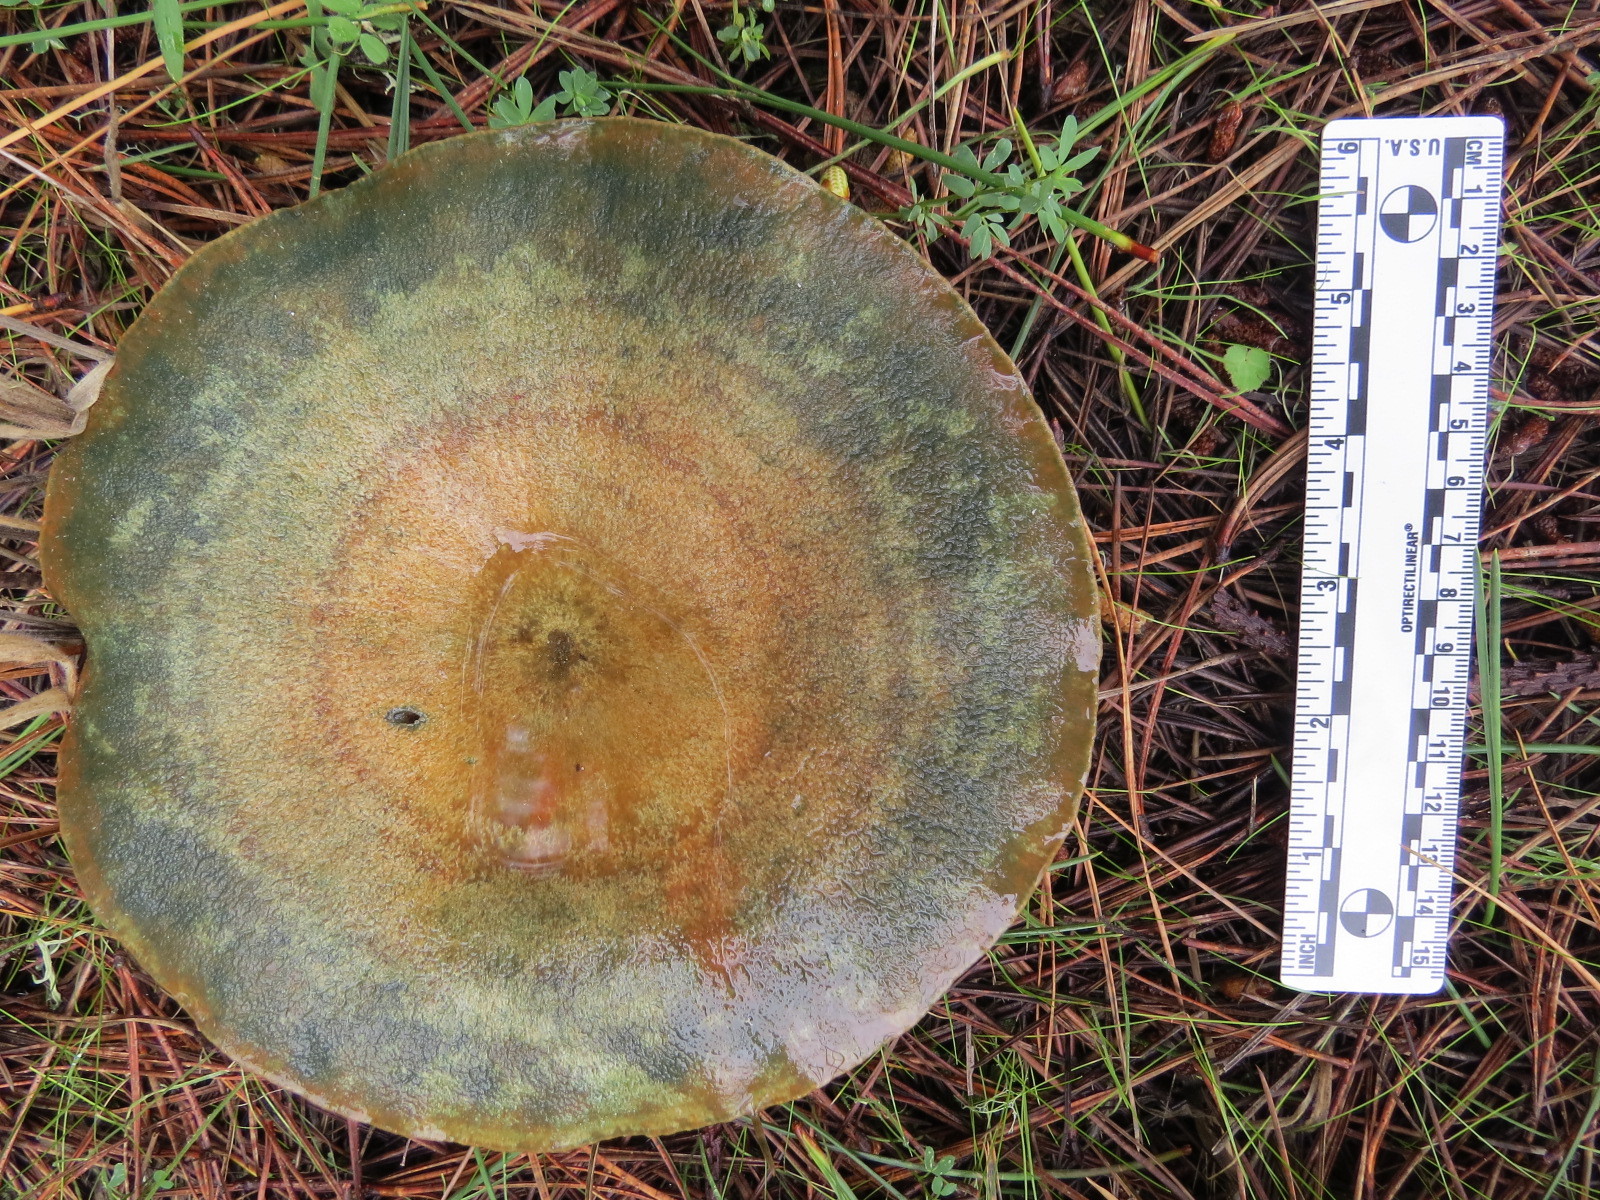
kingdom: Fungi
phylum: Basidiomycota
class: Agaricomycetes
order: Russulales
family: Russulaceae
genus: Lactarius
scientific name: Lactarius deliciosus
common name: Saffron milk-cap
